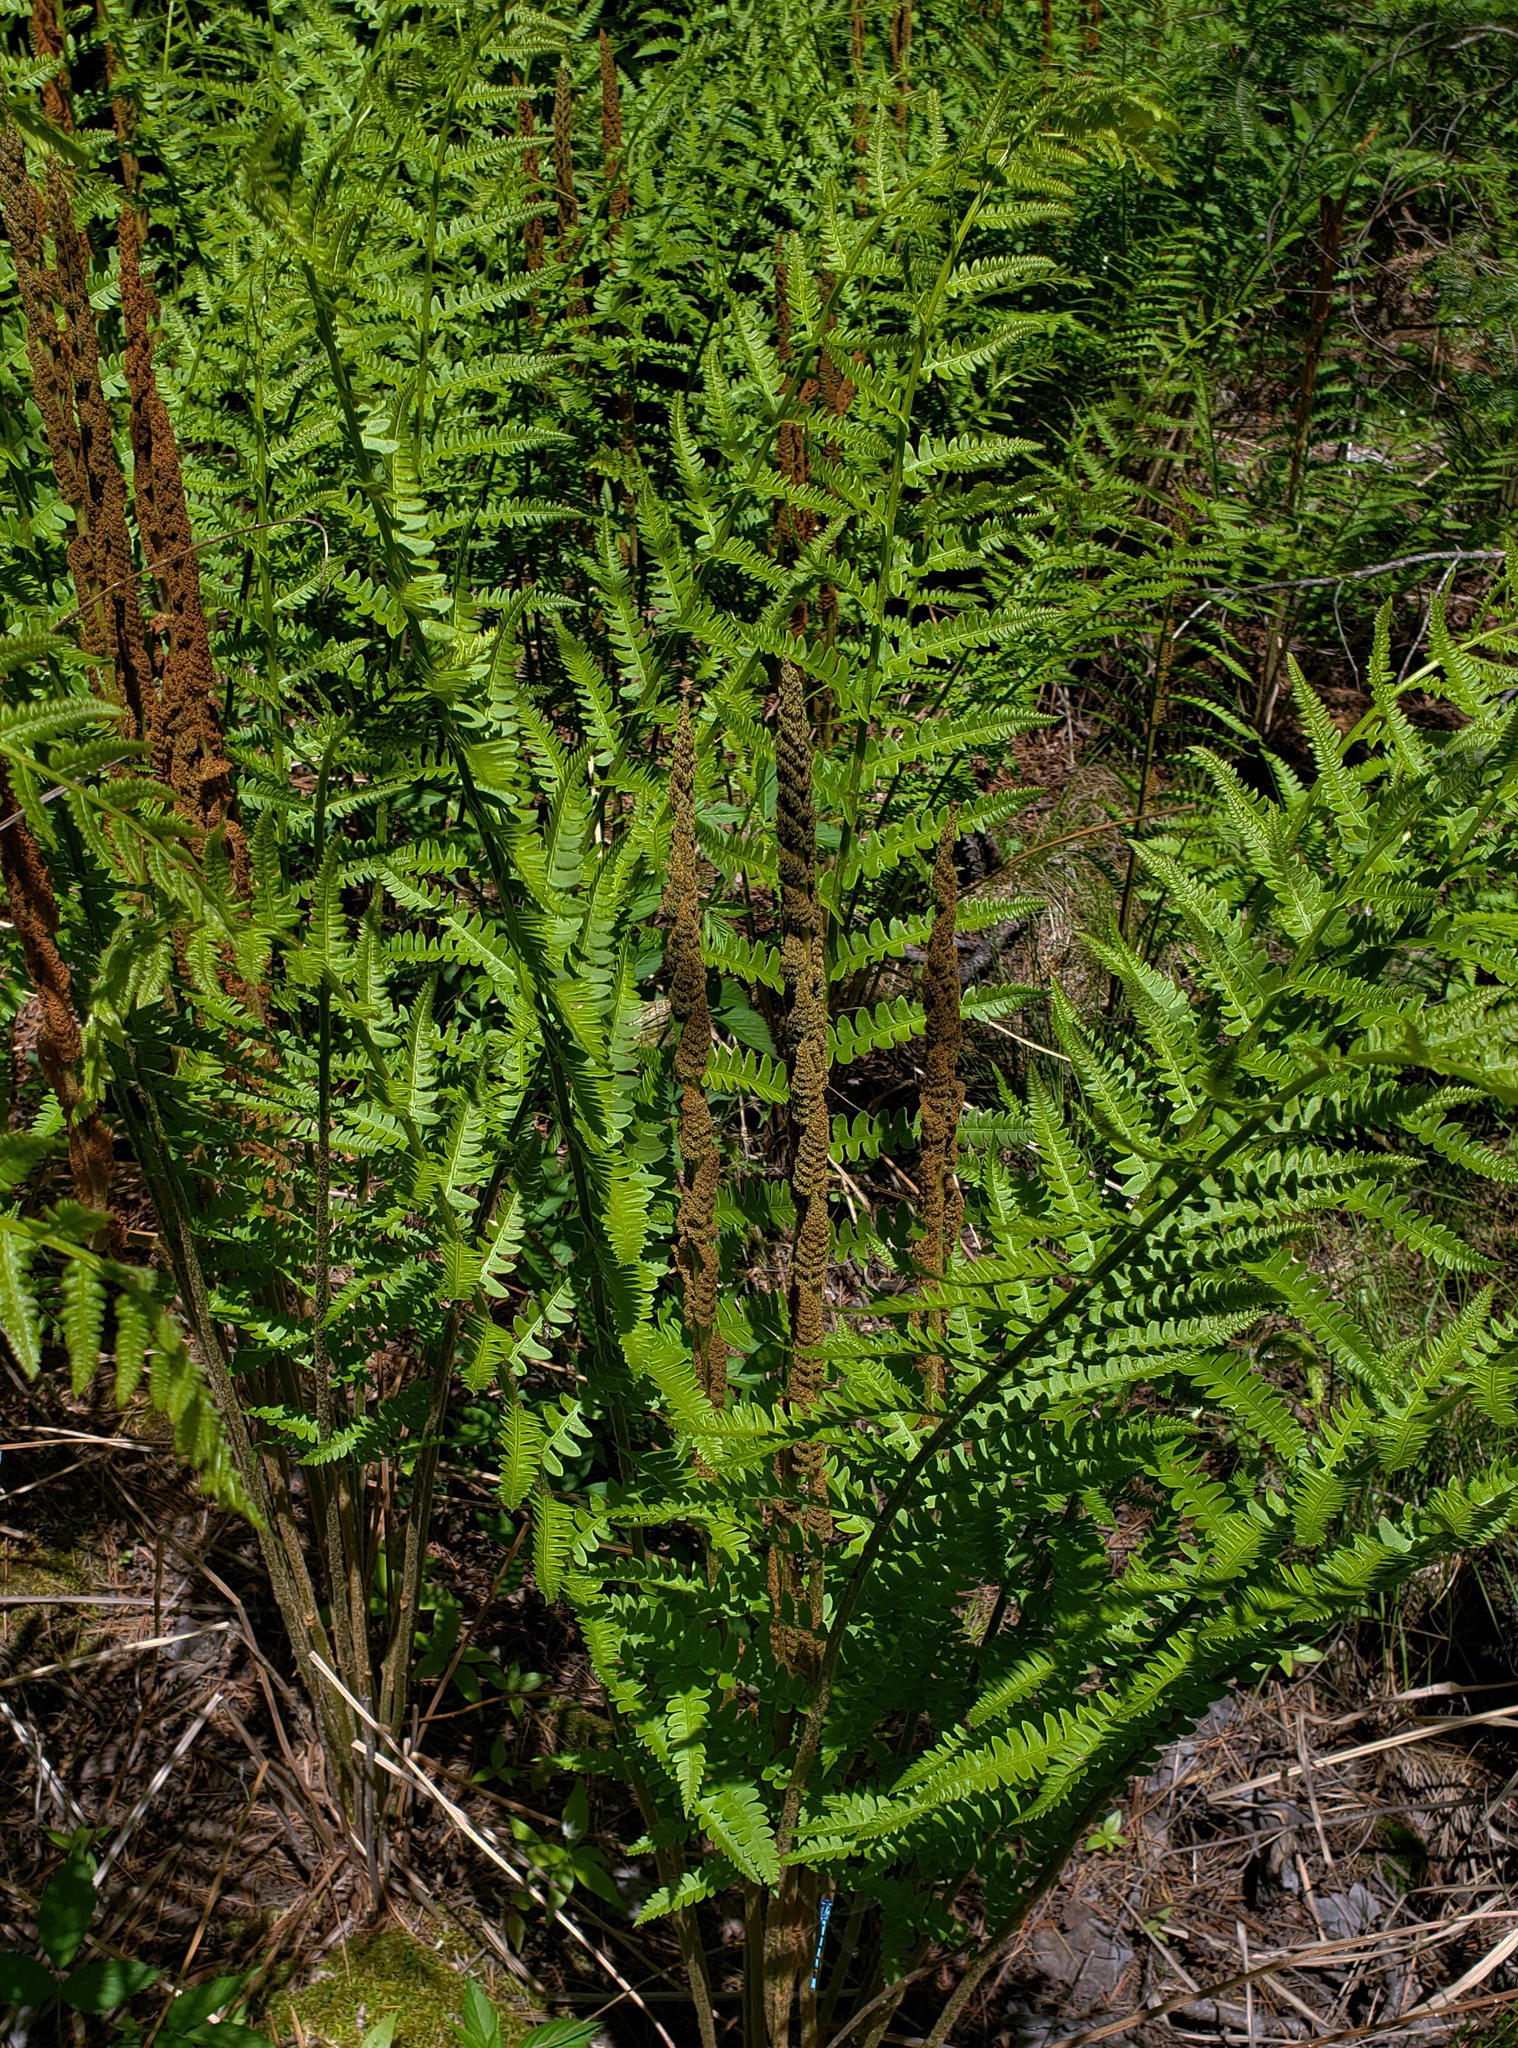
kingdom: Plantae
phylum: Tracheophyta
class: Polypodiopsida
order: Osmundales
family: Osmundaceae
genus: Osmundastrum
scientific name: Osmundastrum cinnamomeum
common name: Cinnamon fern
